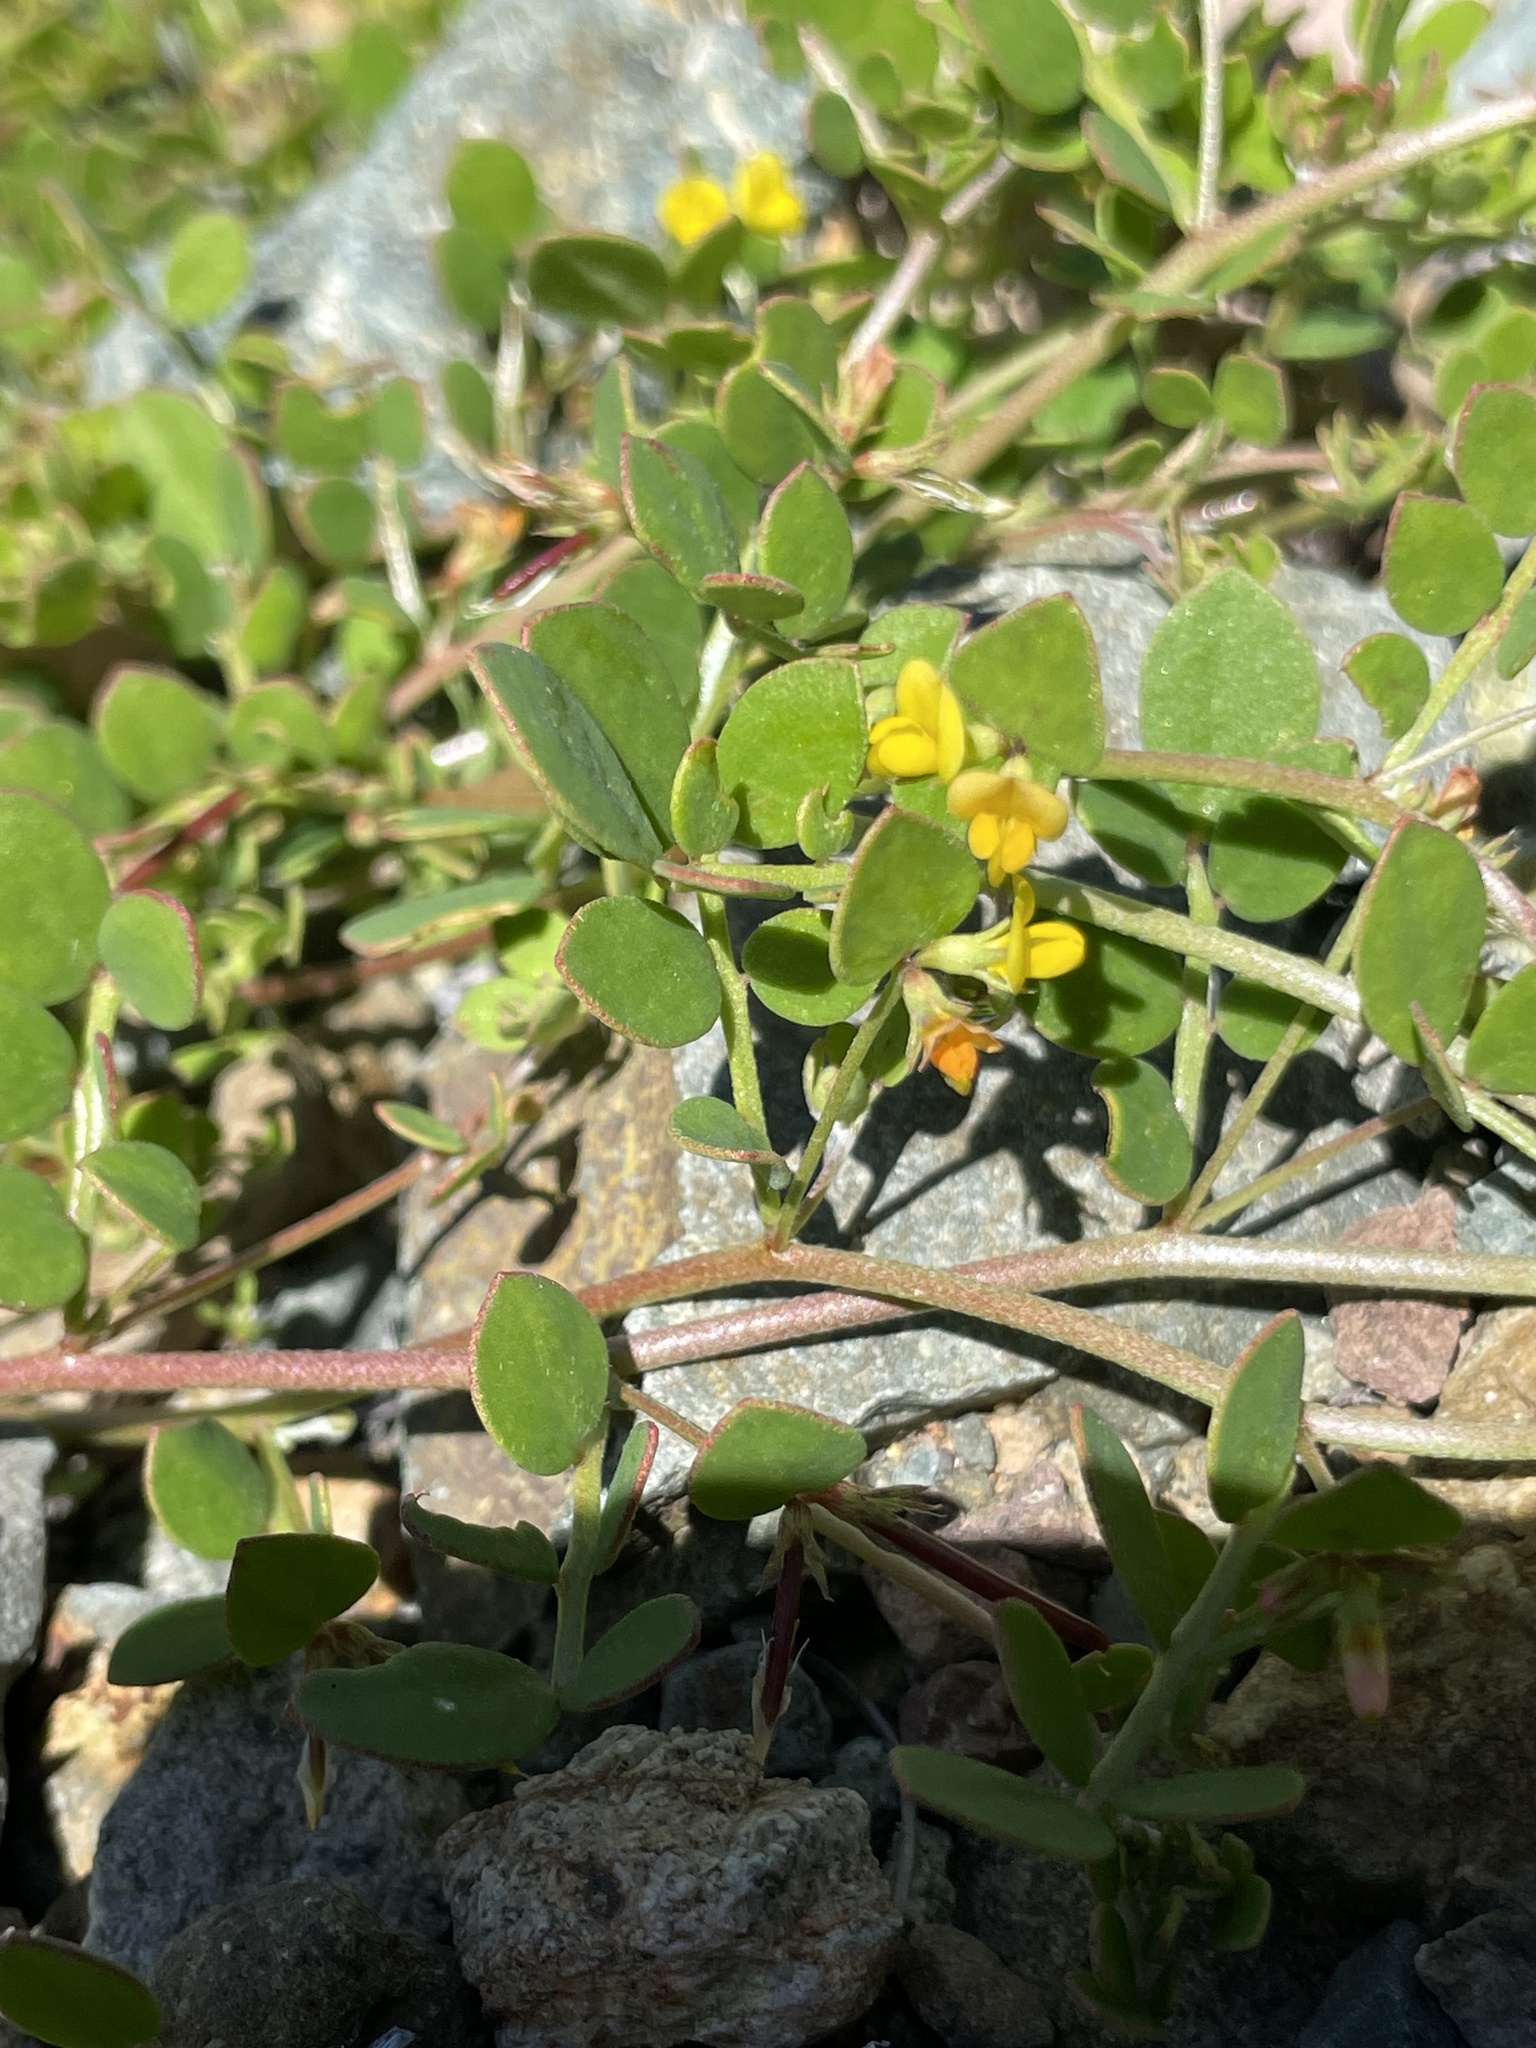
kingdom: Plantae
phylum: Tracheophyta
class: Magnoliopsida
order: Fabales
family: Fabaceae
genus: Acmispon
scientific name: Acmispon maritimus
